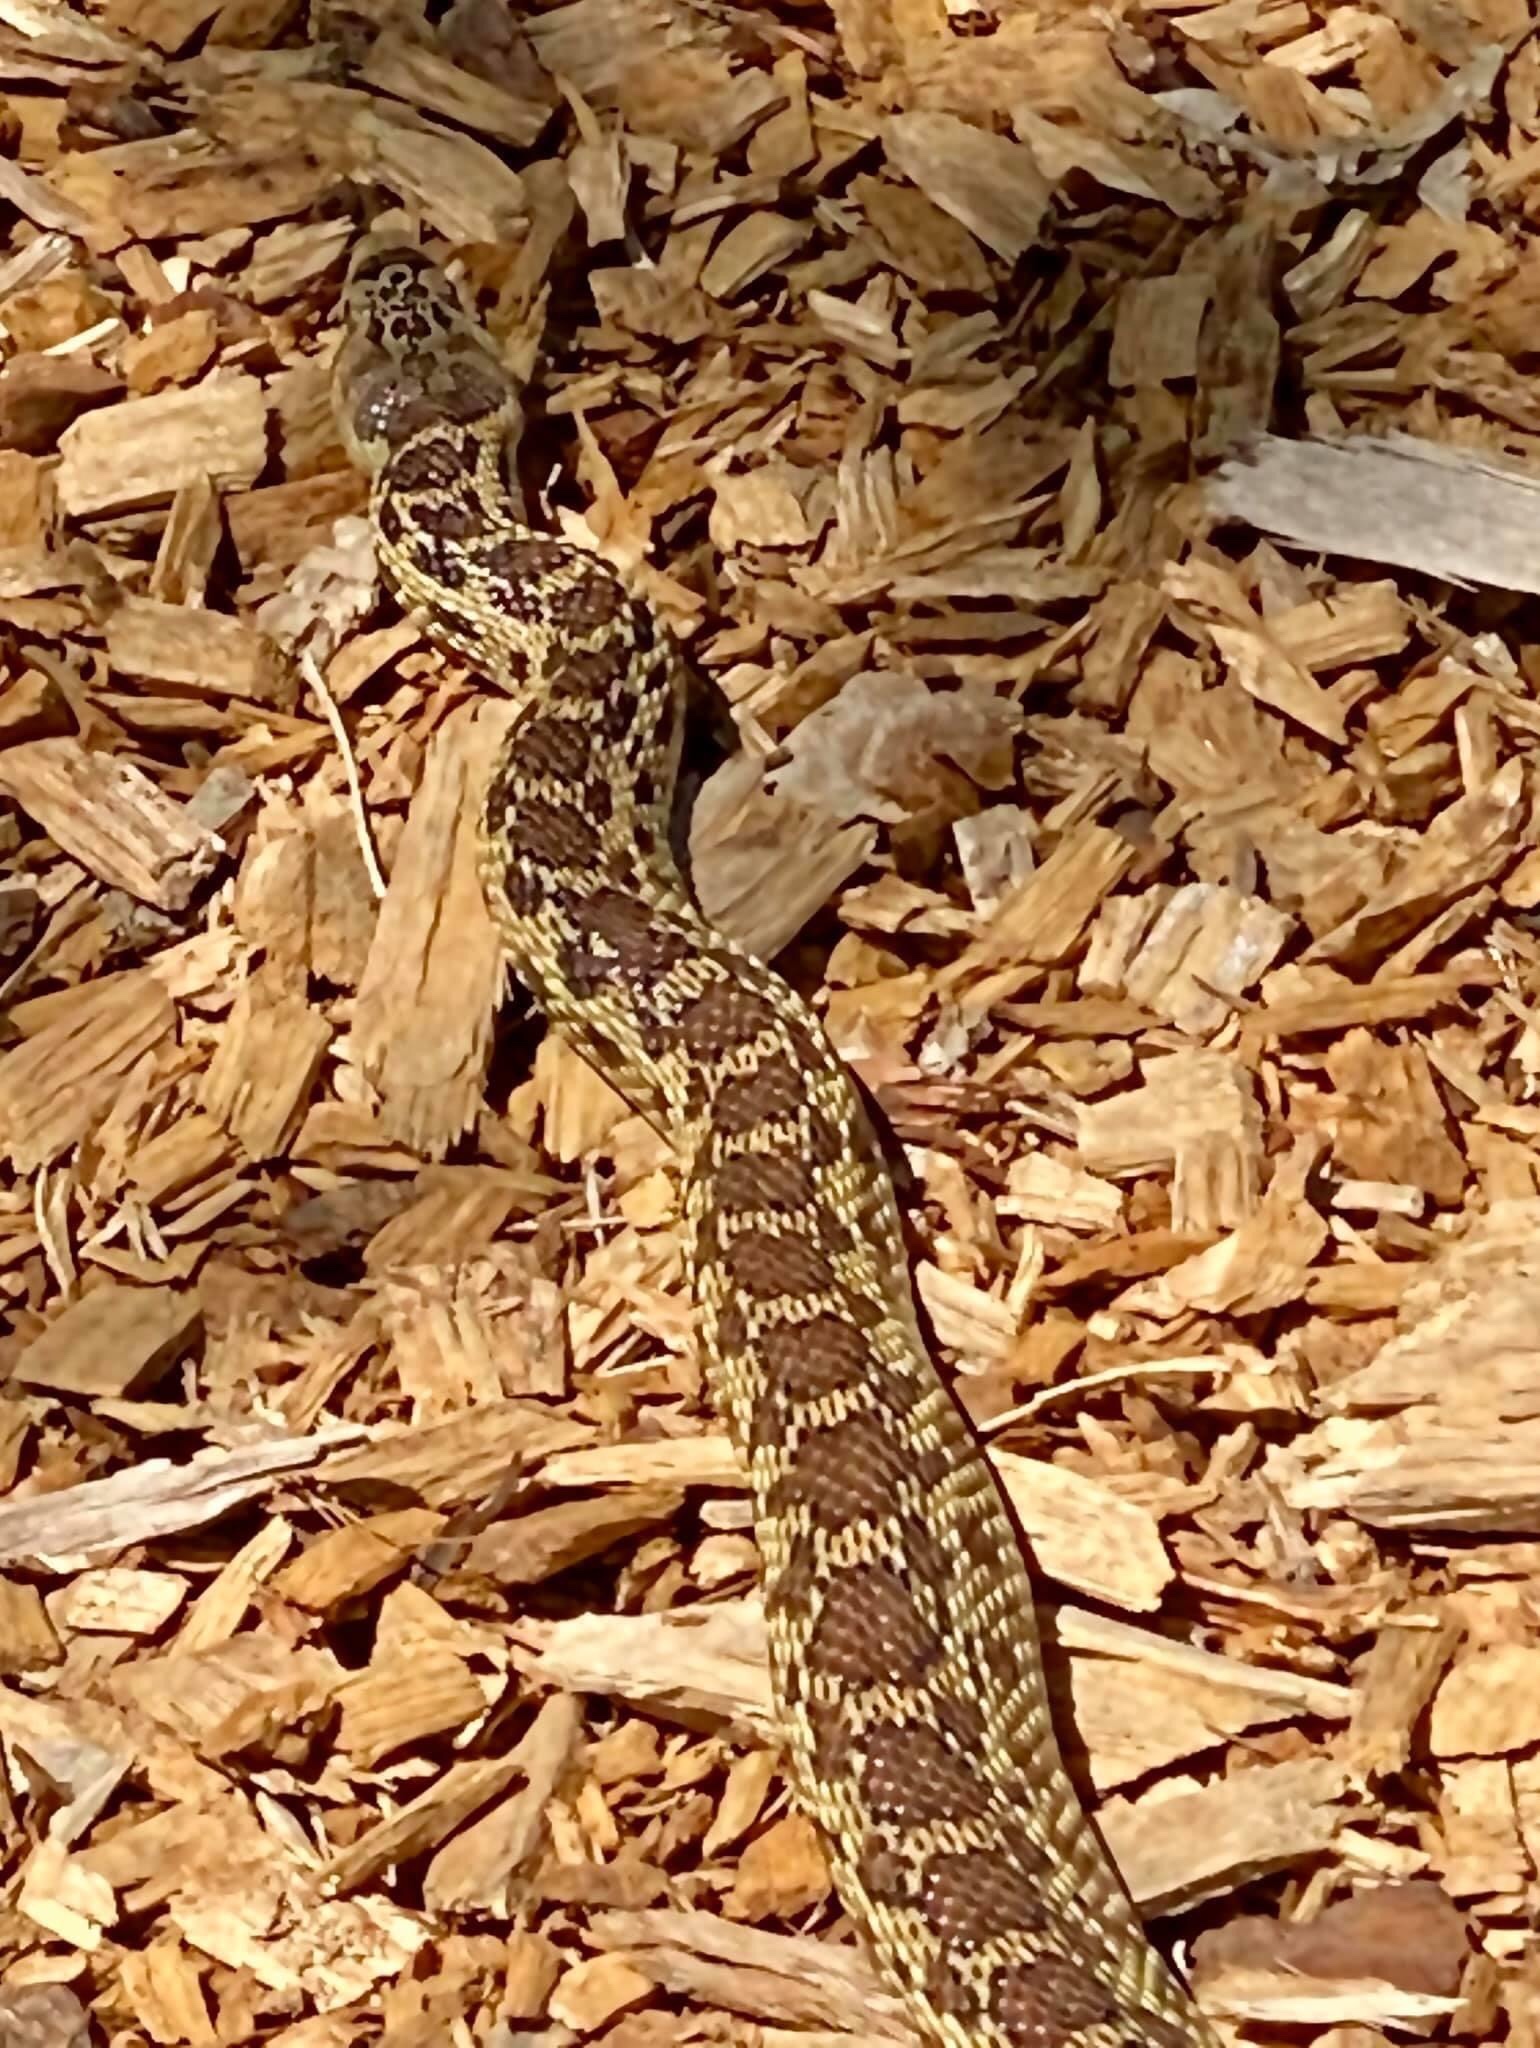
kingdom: Animalia
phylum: Chordata
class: Squamata
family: Colubridae
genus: Pituophis
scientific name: Pituophis catenifer
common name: Gopher snake
